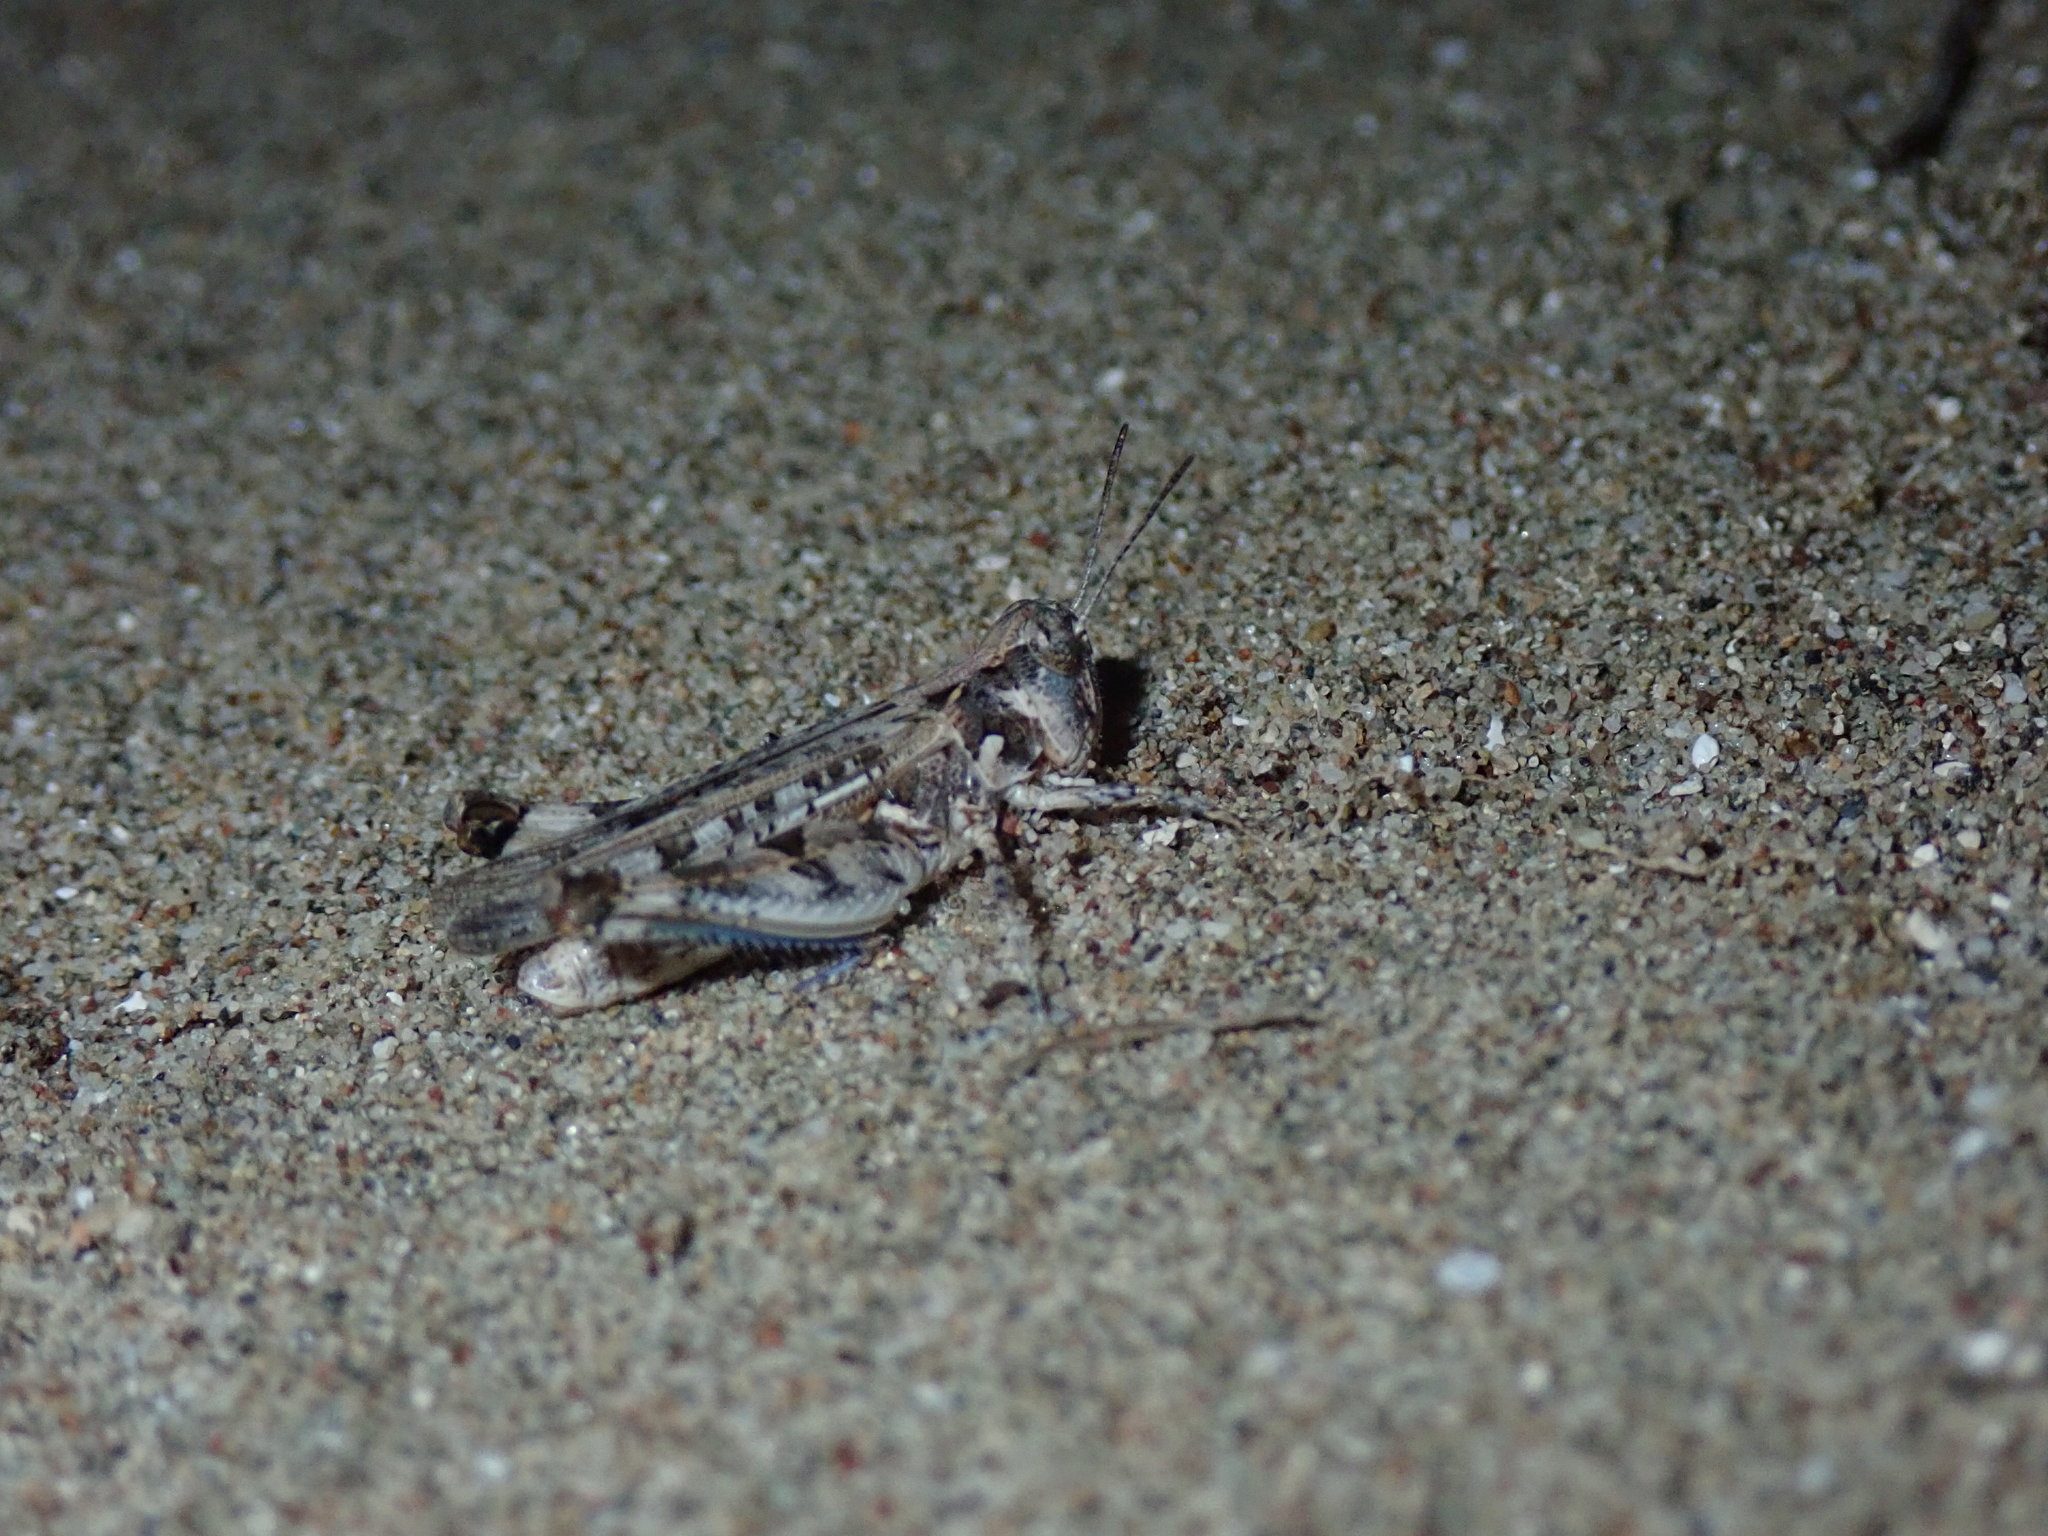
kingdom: Animalia
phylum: Arthropoda
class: Insecta
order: Orthoptera
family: Acrididae
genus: Dociostaurus
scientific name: Dociostaurus genei
